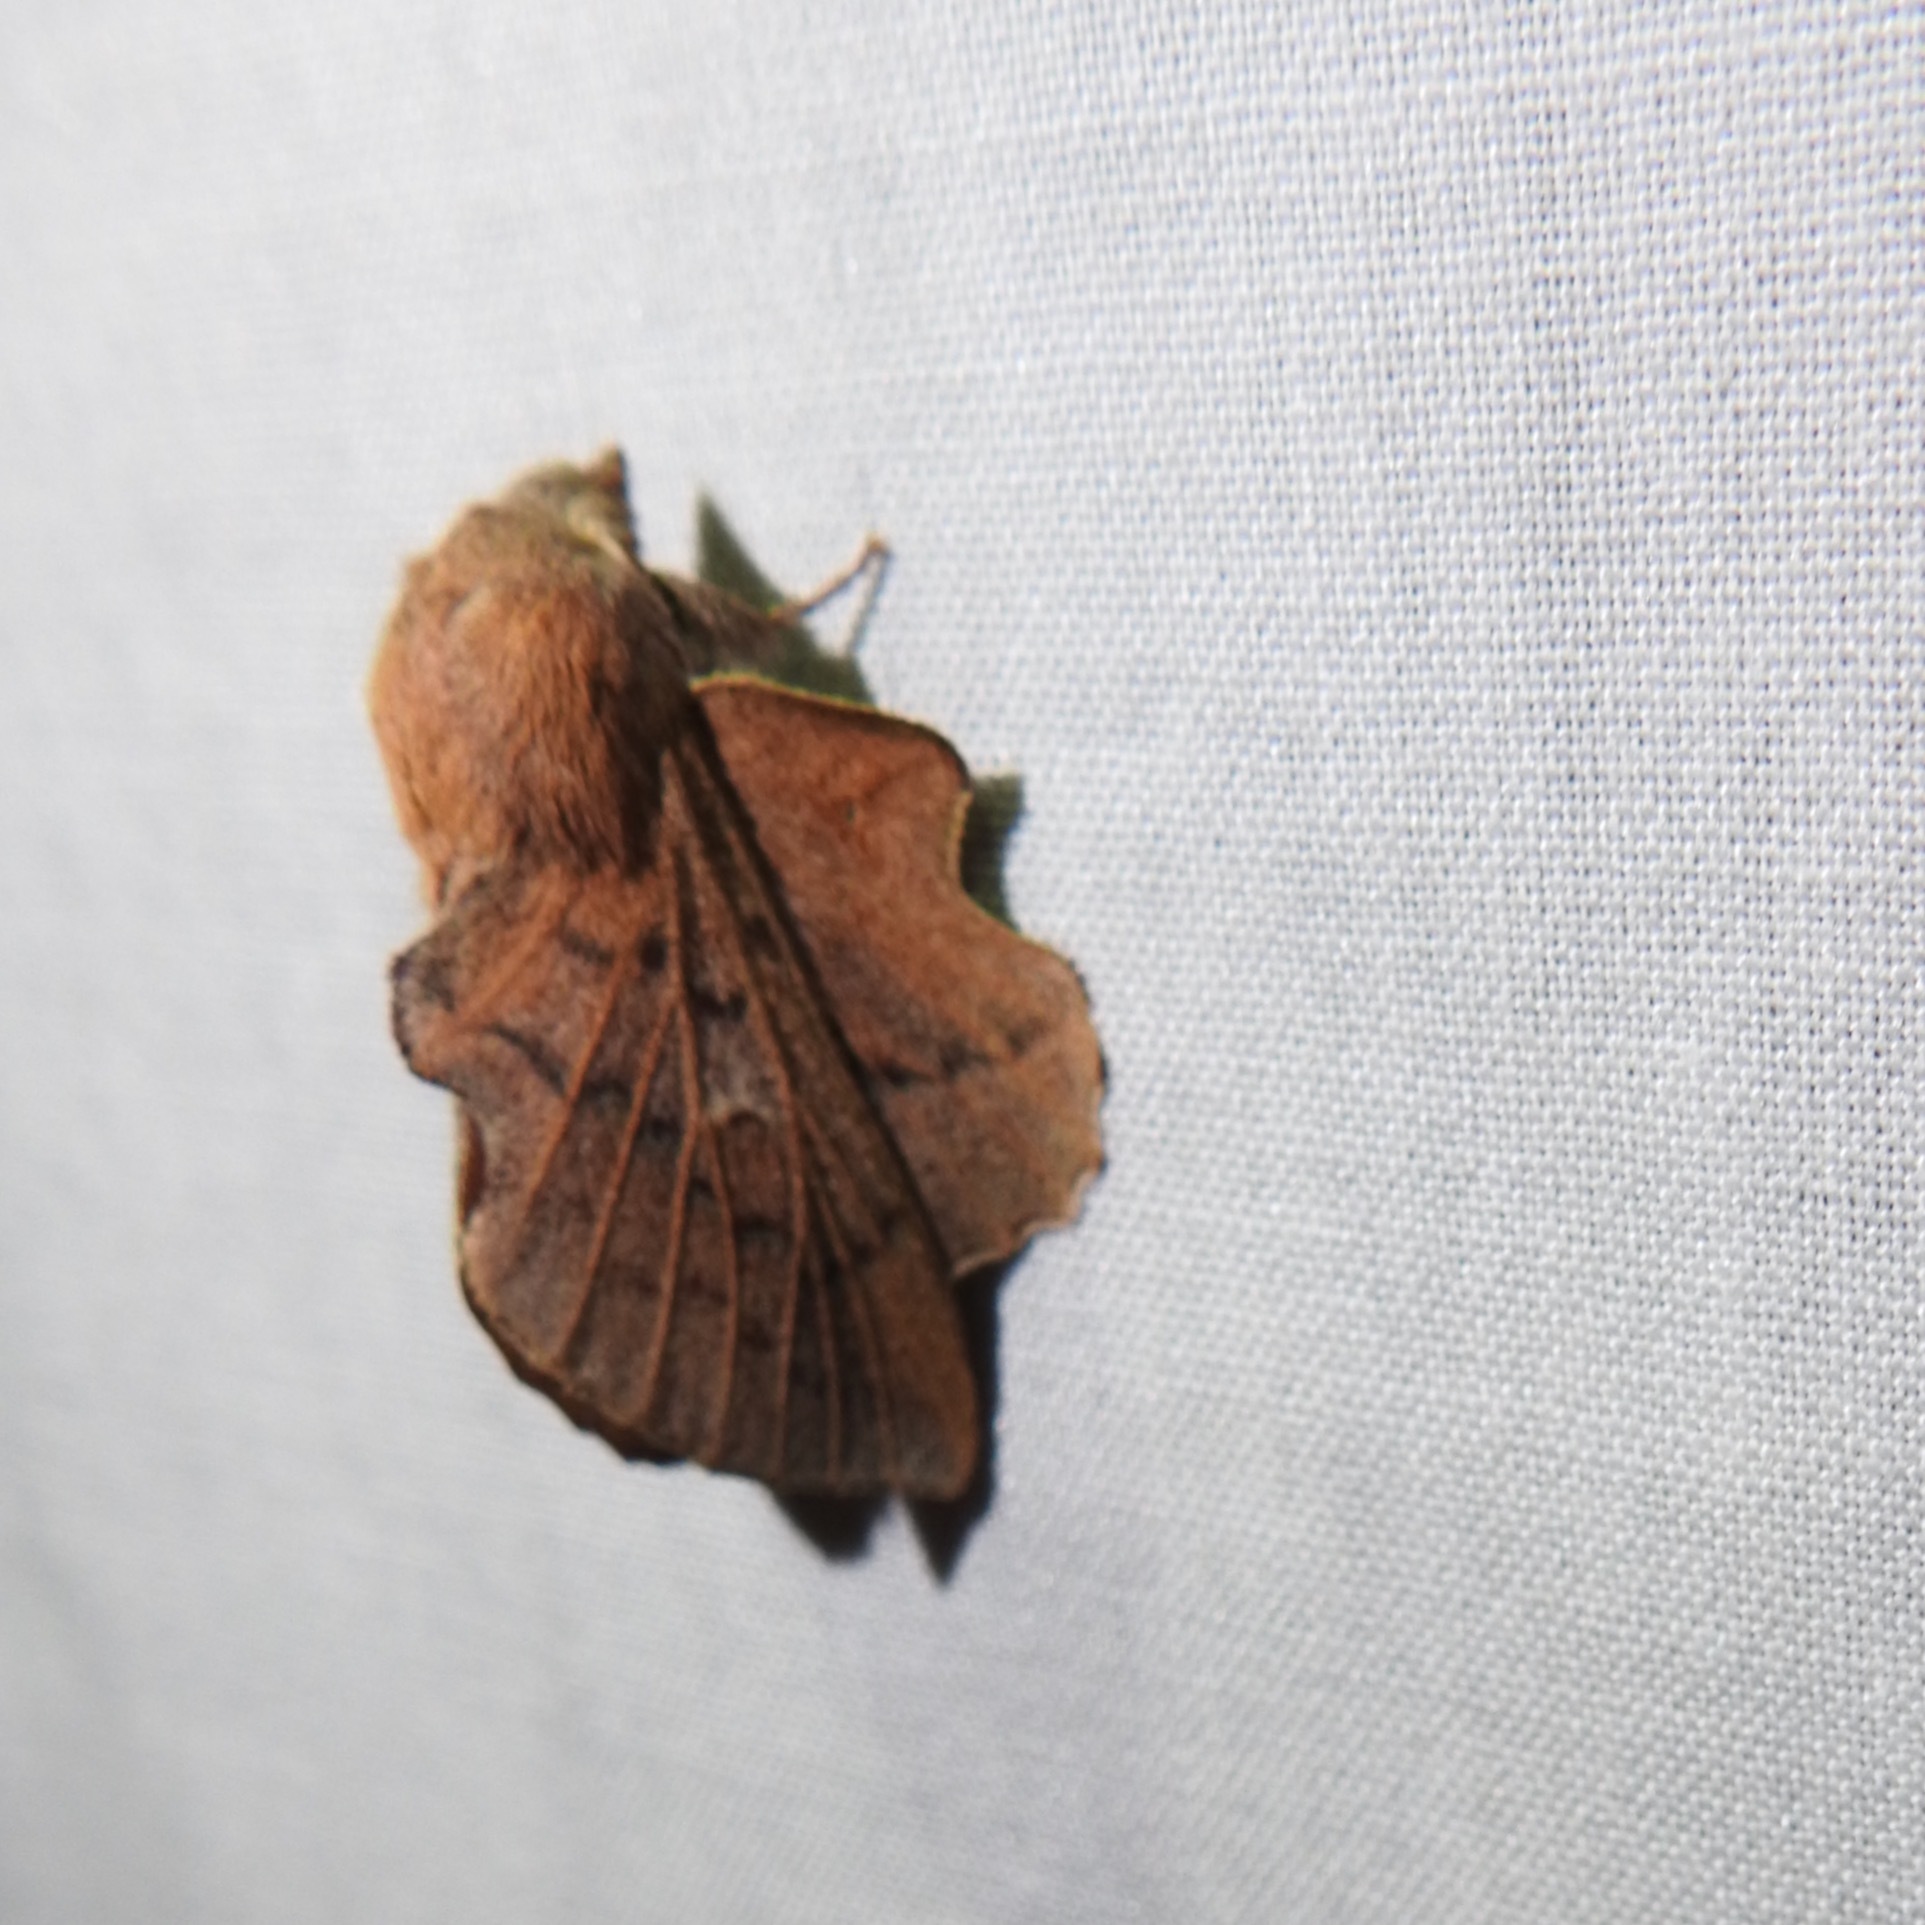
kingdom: Animalia
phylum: Arthropoda
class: Insecta
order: Lepidoptera
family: Lasiocampidae
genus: Phyllodesma
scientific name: Phyllodesma americana
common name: American lappet moth
